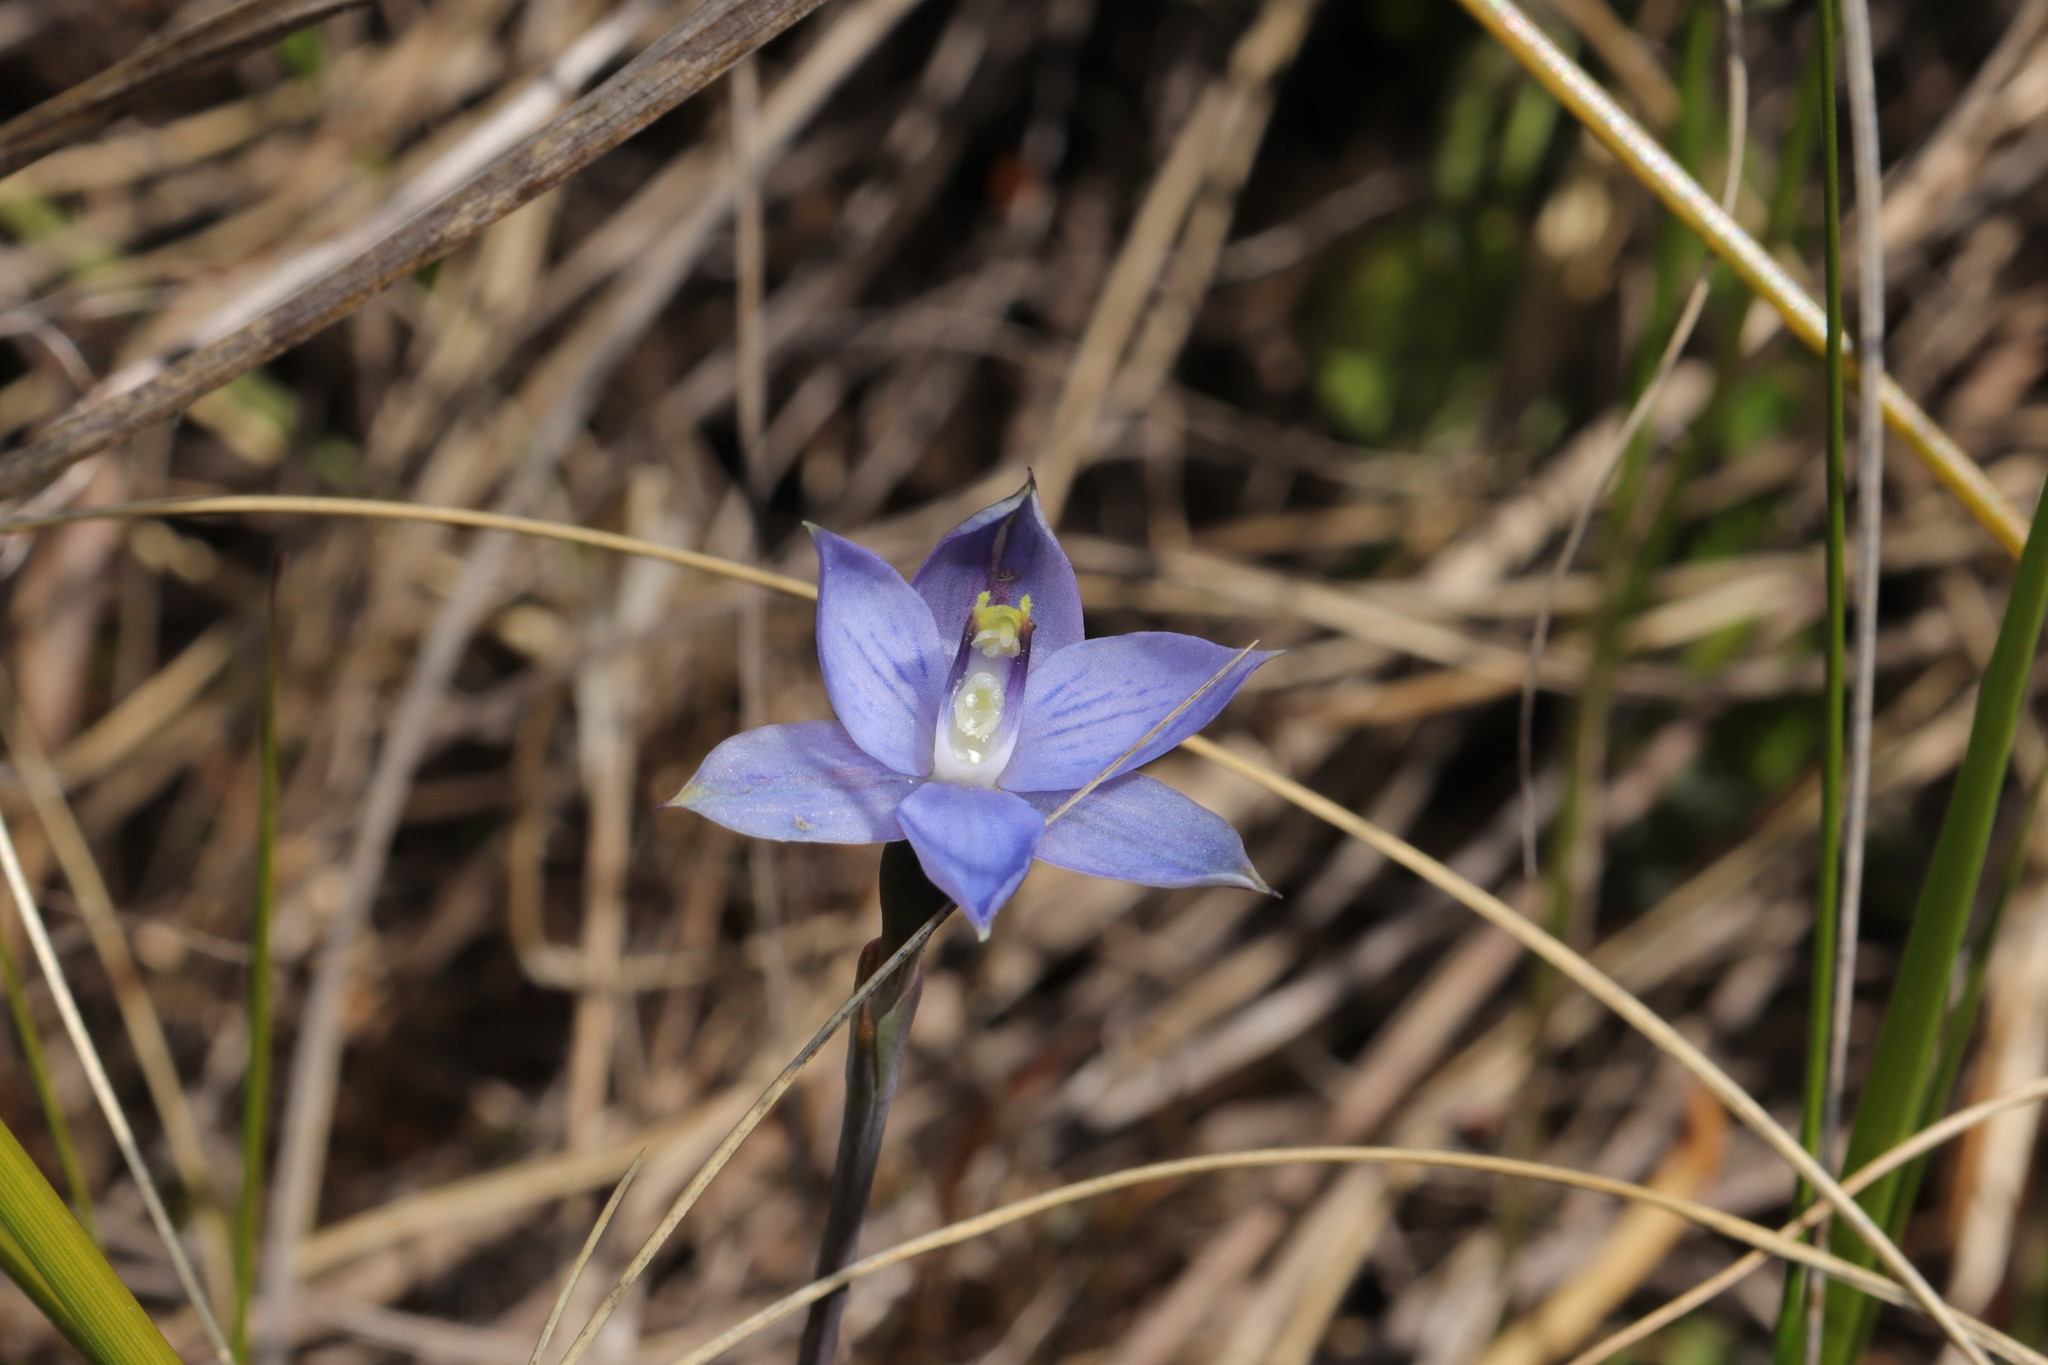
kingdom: Plantae
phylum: Tracheophyta
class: Liliopsida
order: Asparagales
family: Orchidaceae
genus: Thelymitra
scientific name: Thelymitra pulchella
